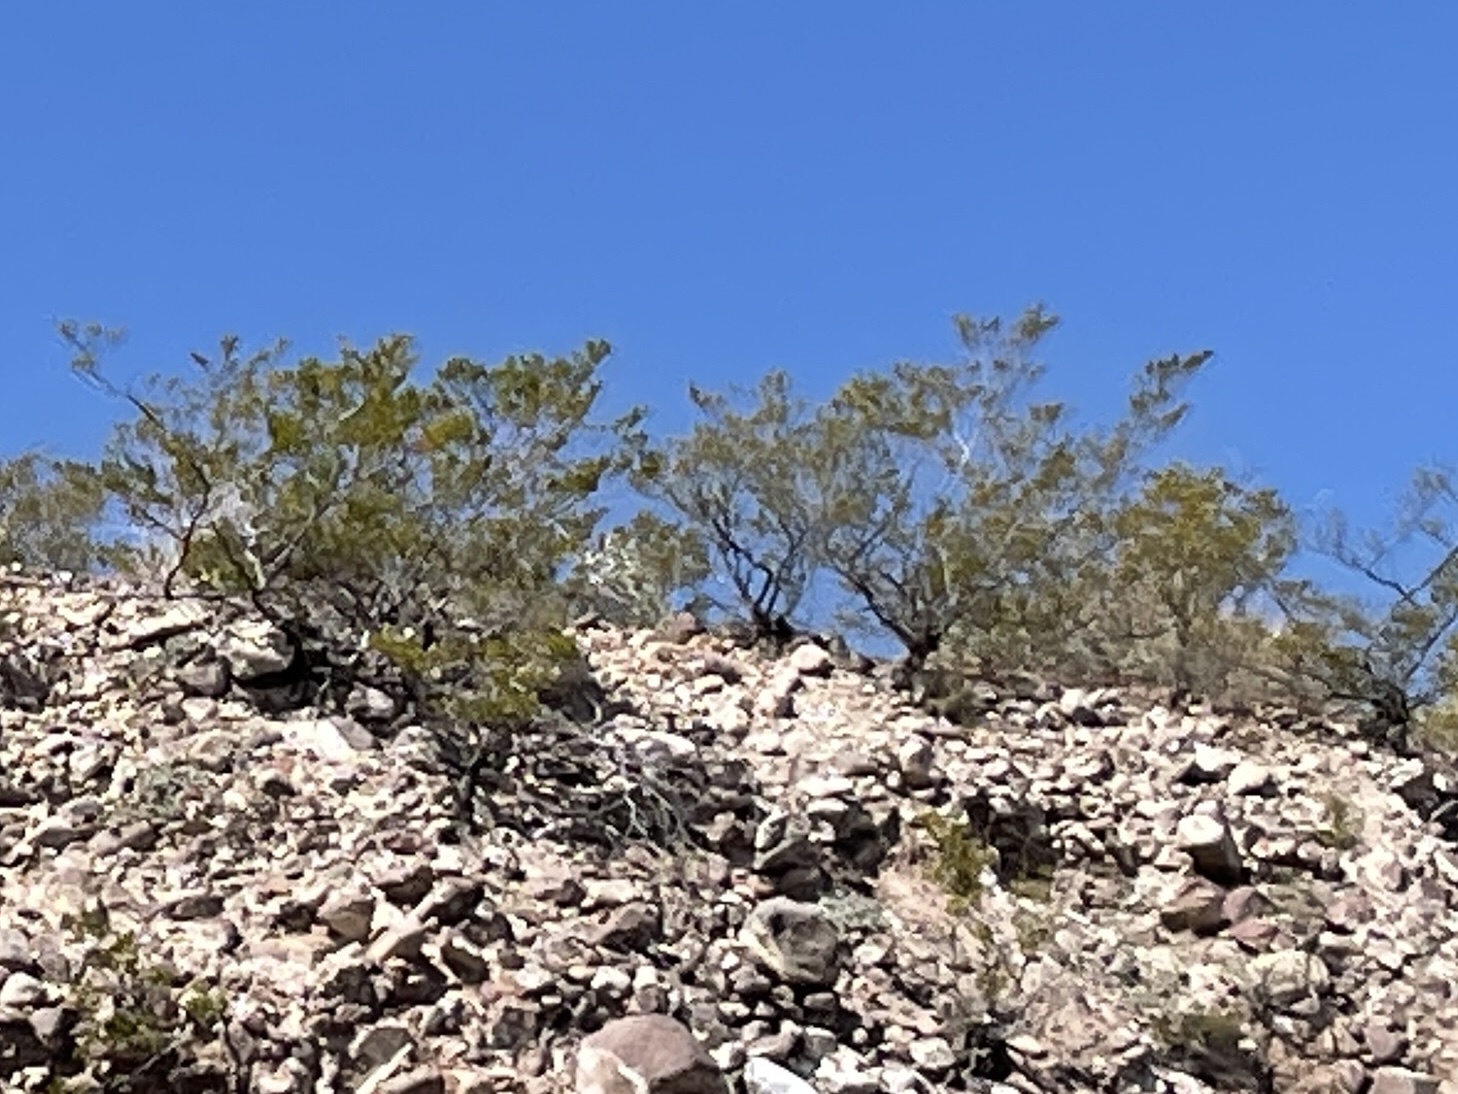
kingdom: Plantae
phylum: Tracheophyta
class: Magnoliopsida
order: Zygophyllales
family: Zygophyllaceae
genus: Larrea
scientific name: Larrea tridentata
